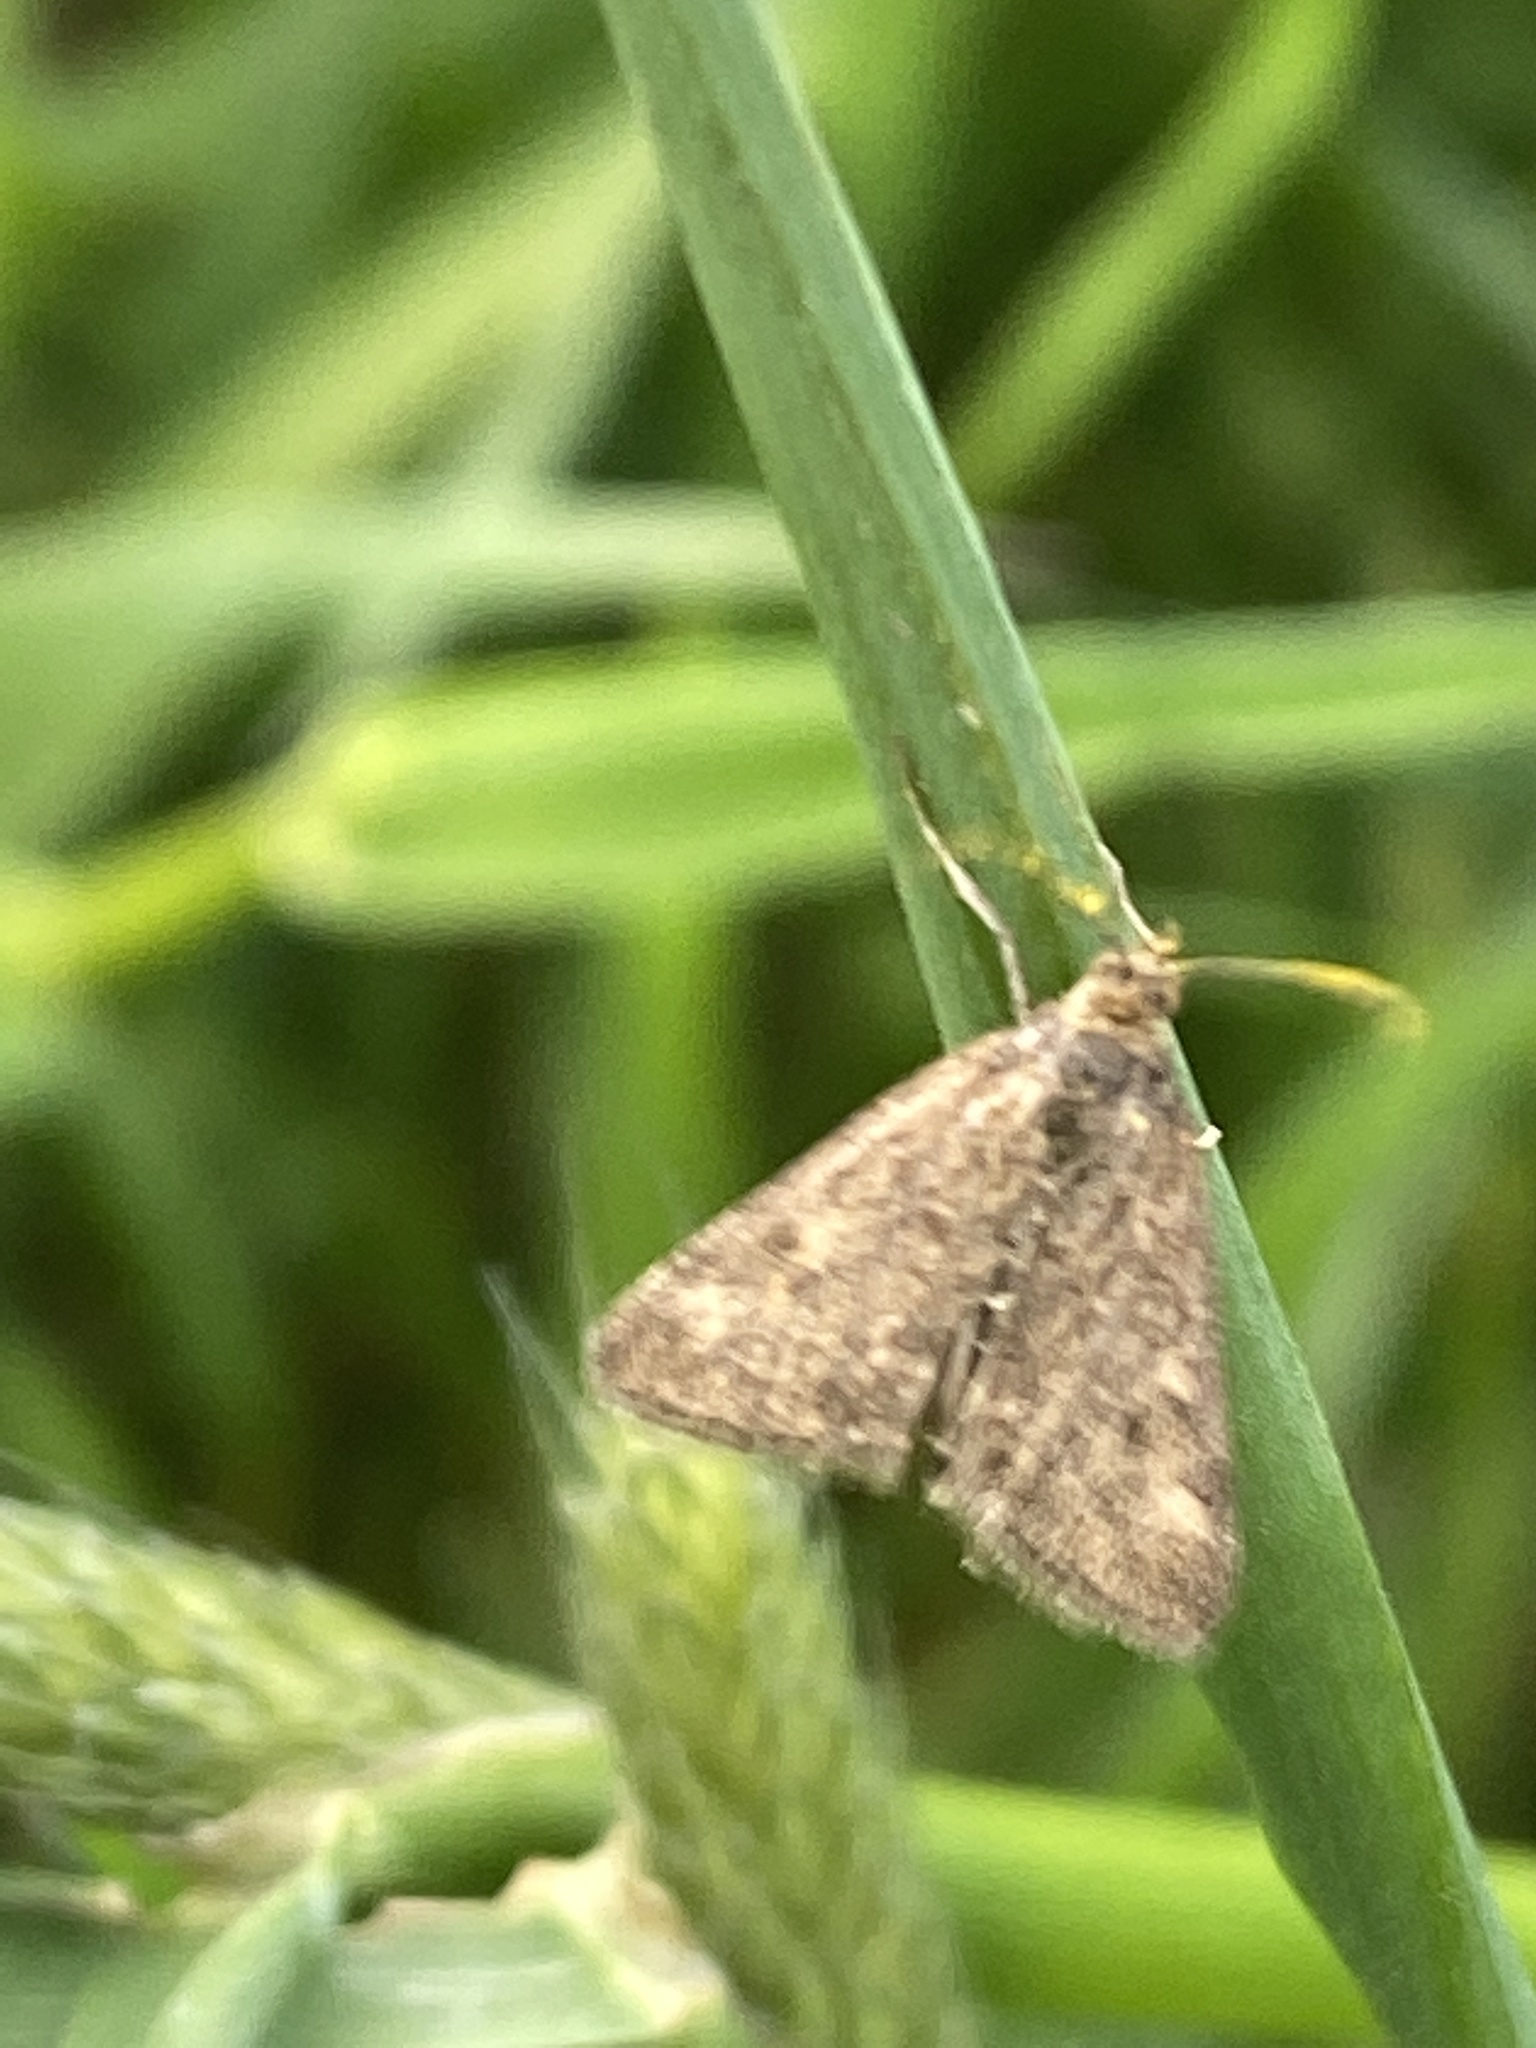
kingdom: Animalia
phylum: Arthropoda
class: Insecta
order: Lepidoptera
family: Crambidae
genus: Pyrausta
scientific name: Pyrausta despicata
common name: Straw-barred pearl
